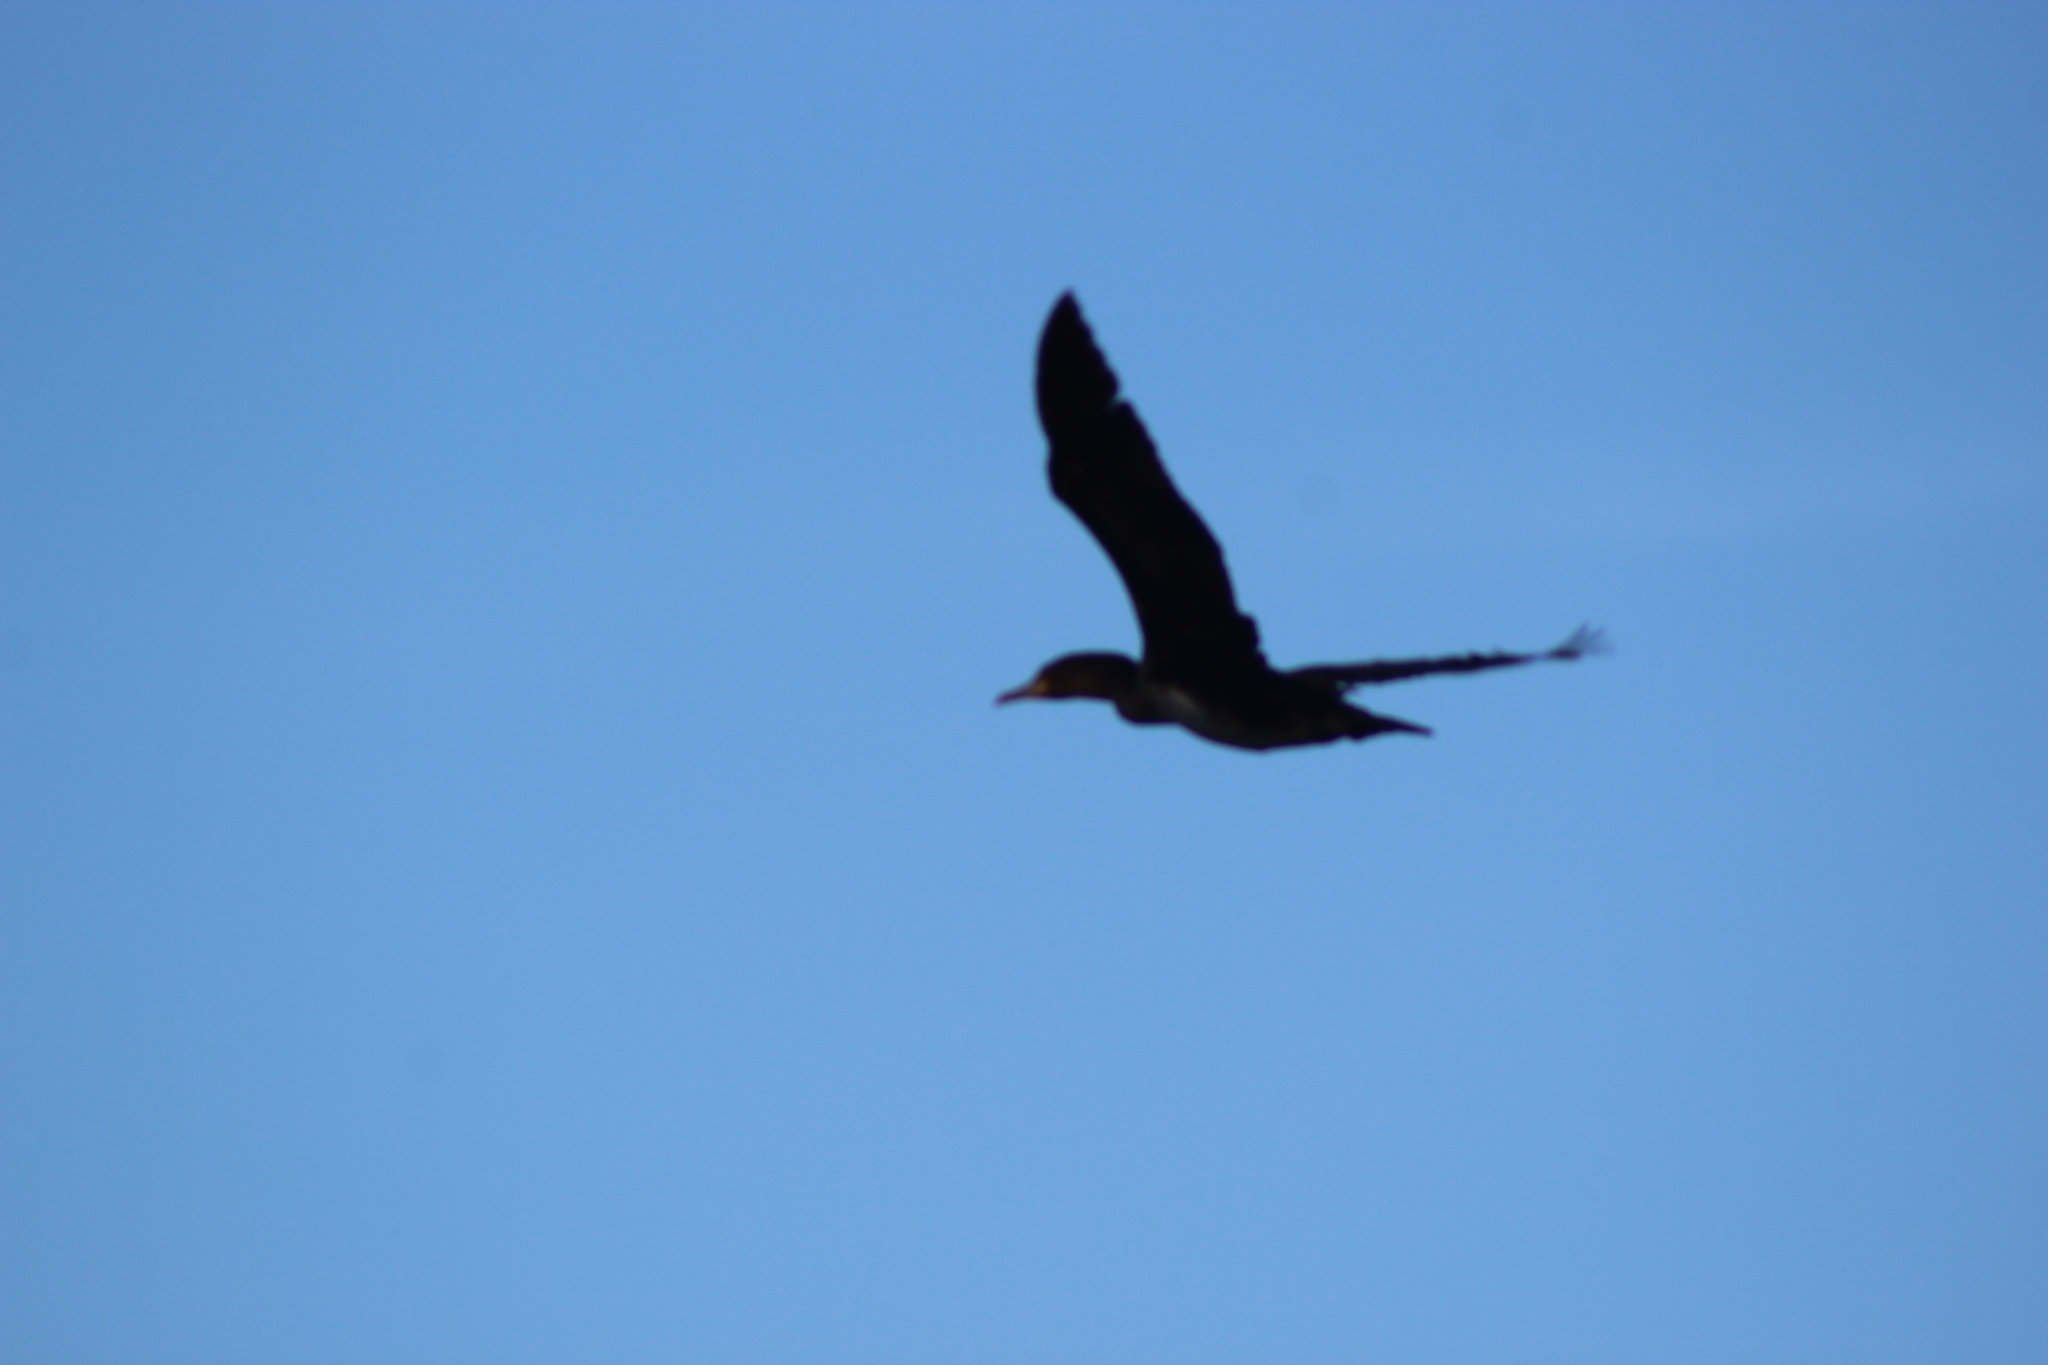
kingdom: Animalia
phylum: Chordata
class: Aves
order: Suliformes
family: Phalacrocoracidae
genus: Phalacrocorax
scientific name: Phalacrocorax carbo
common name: Great cormorant
